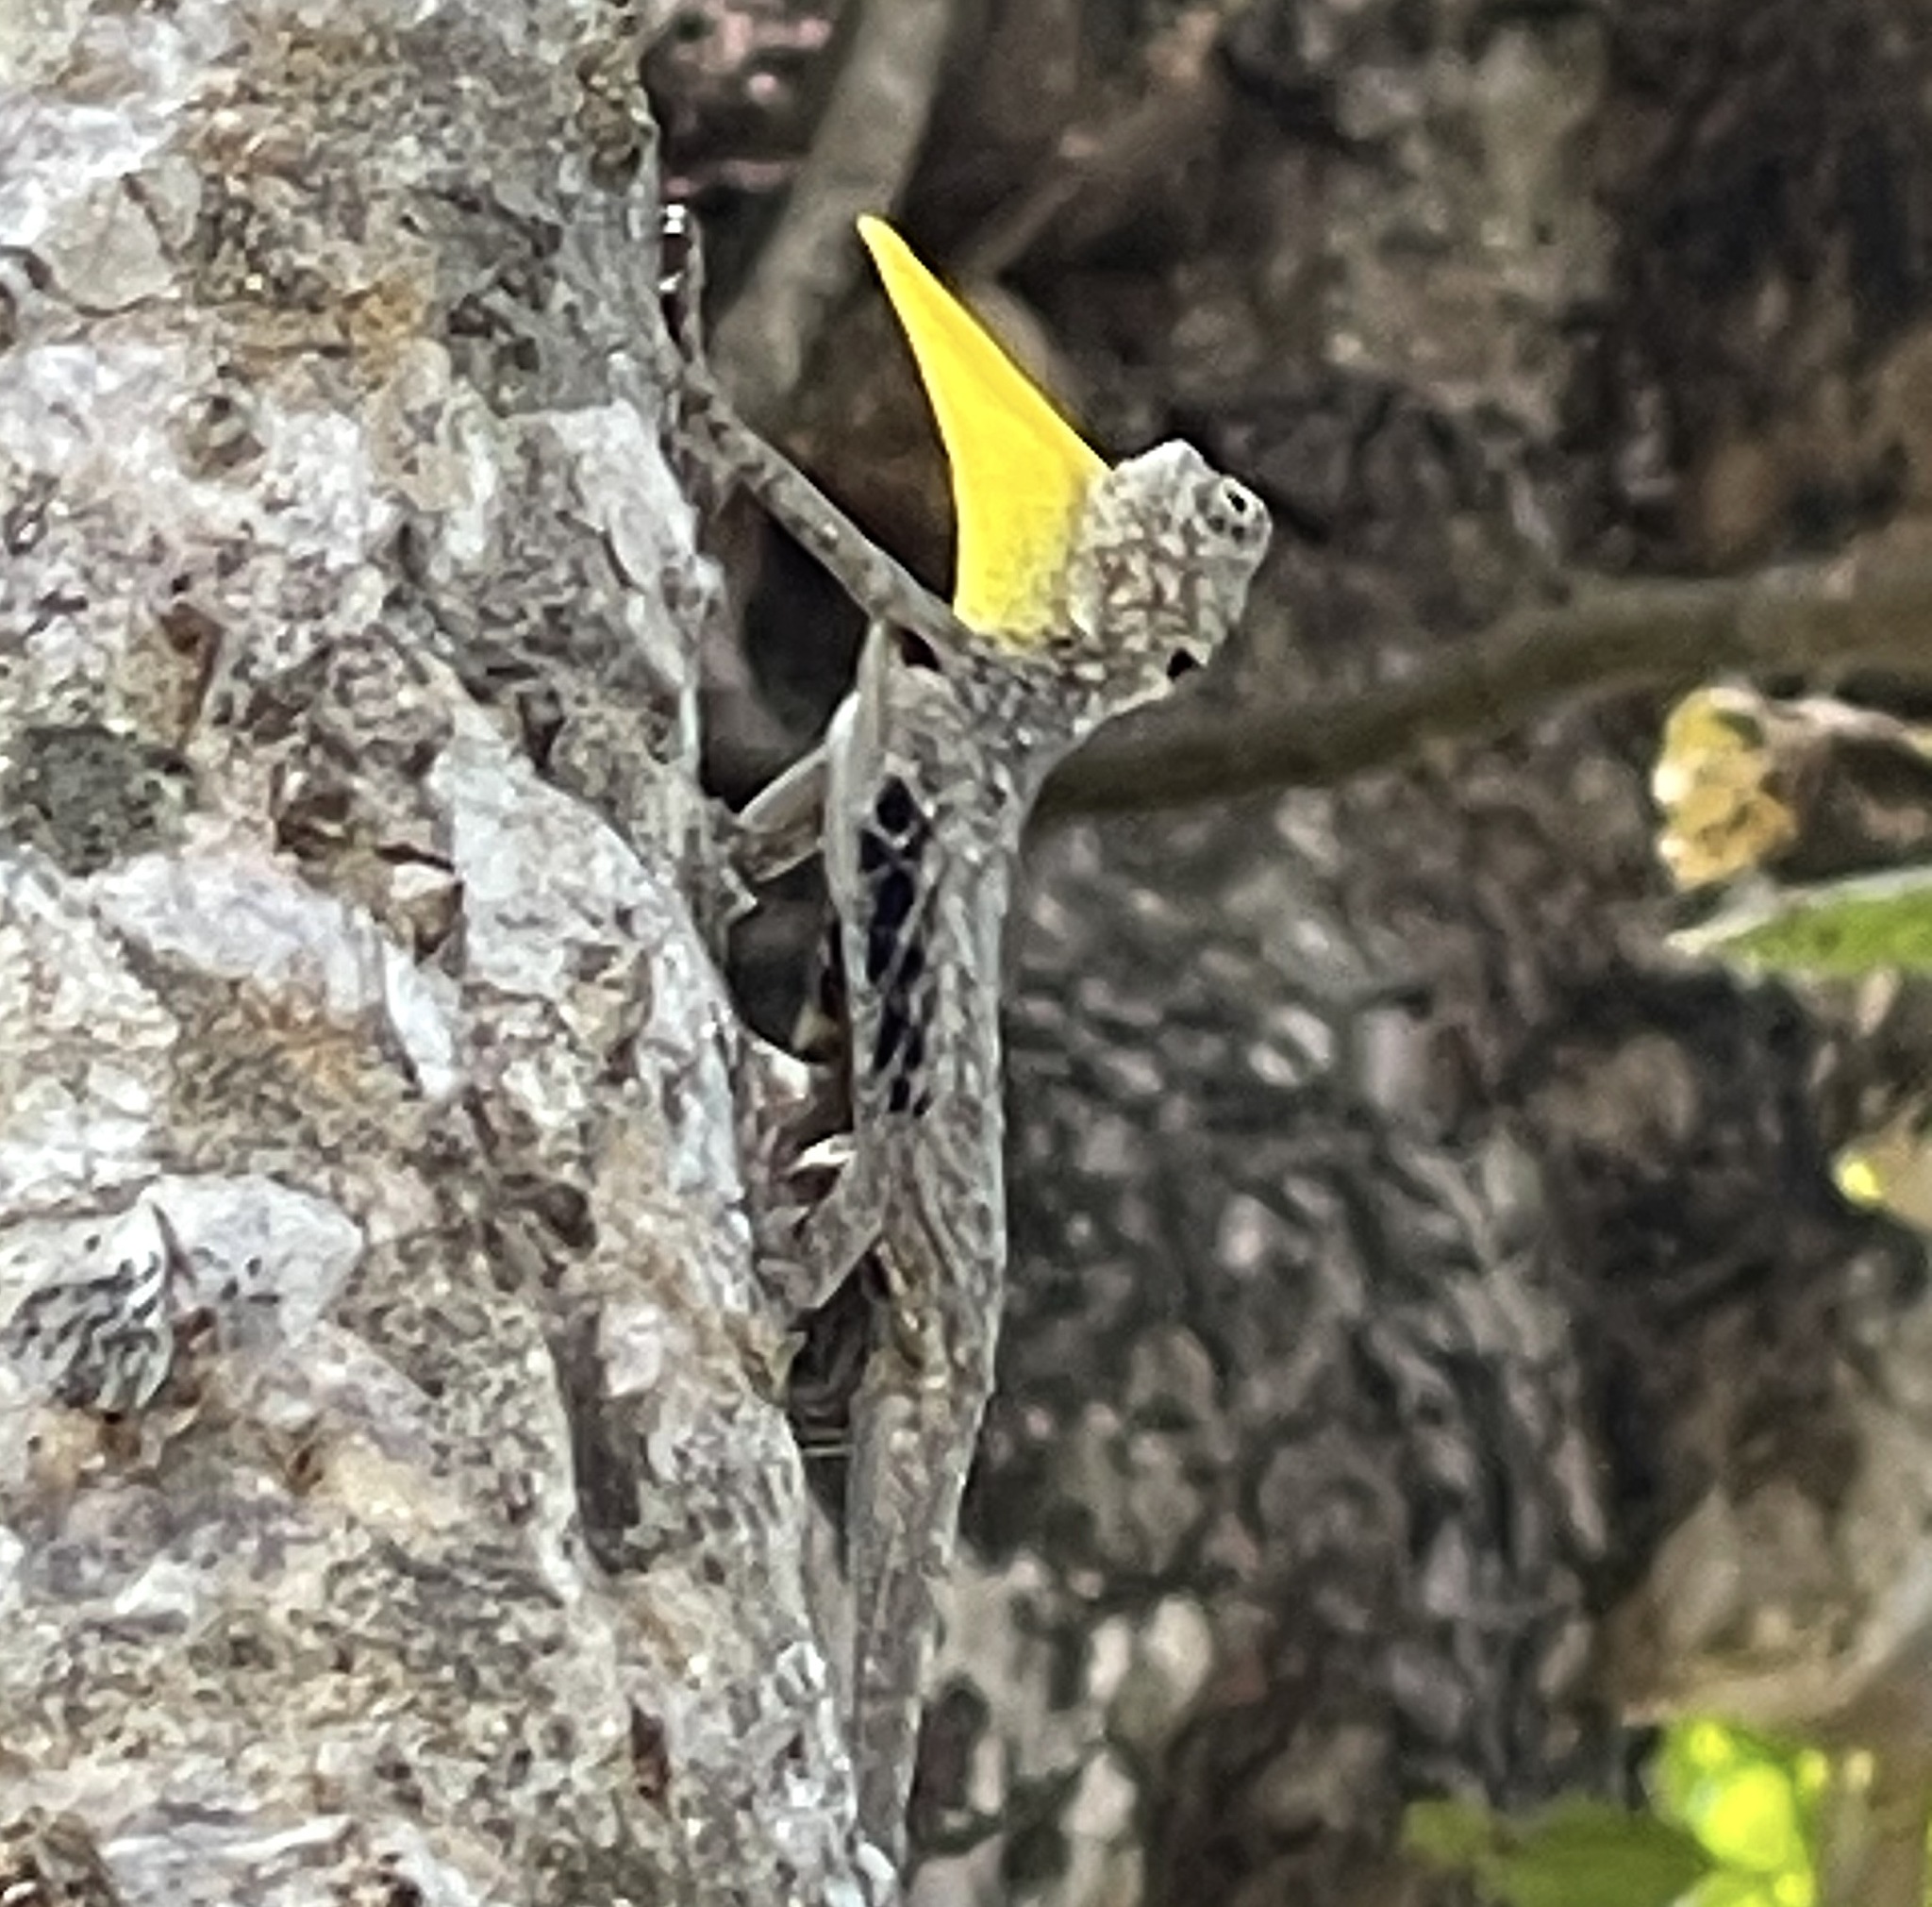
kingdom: Animalia
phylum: Chordata
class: Squamata
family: Agamidae
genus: Draco
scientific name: Draco volans
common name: Common flying dragon
